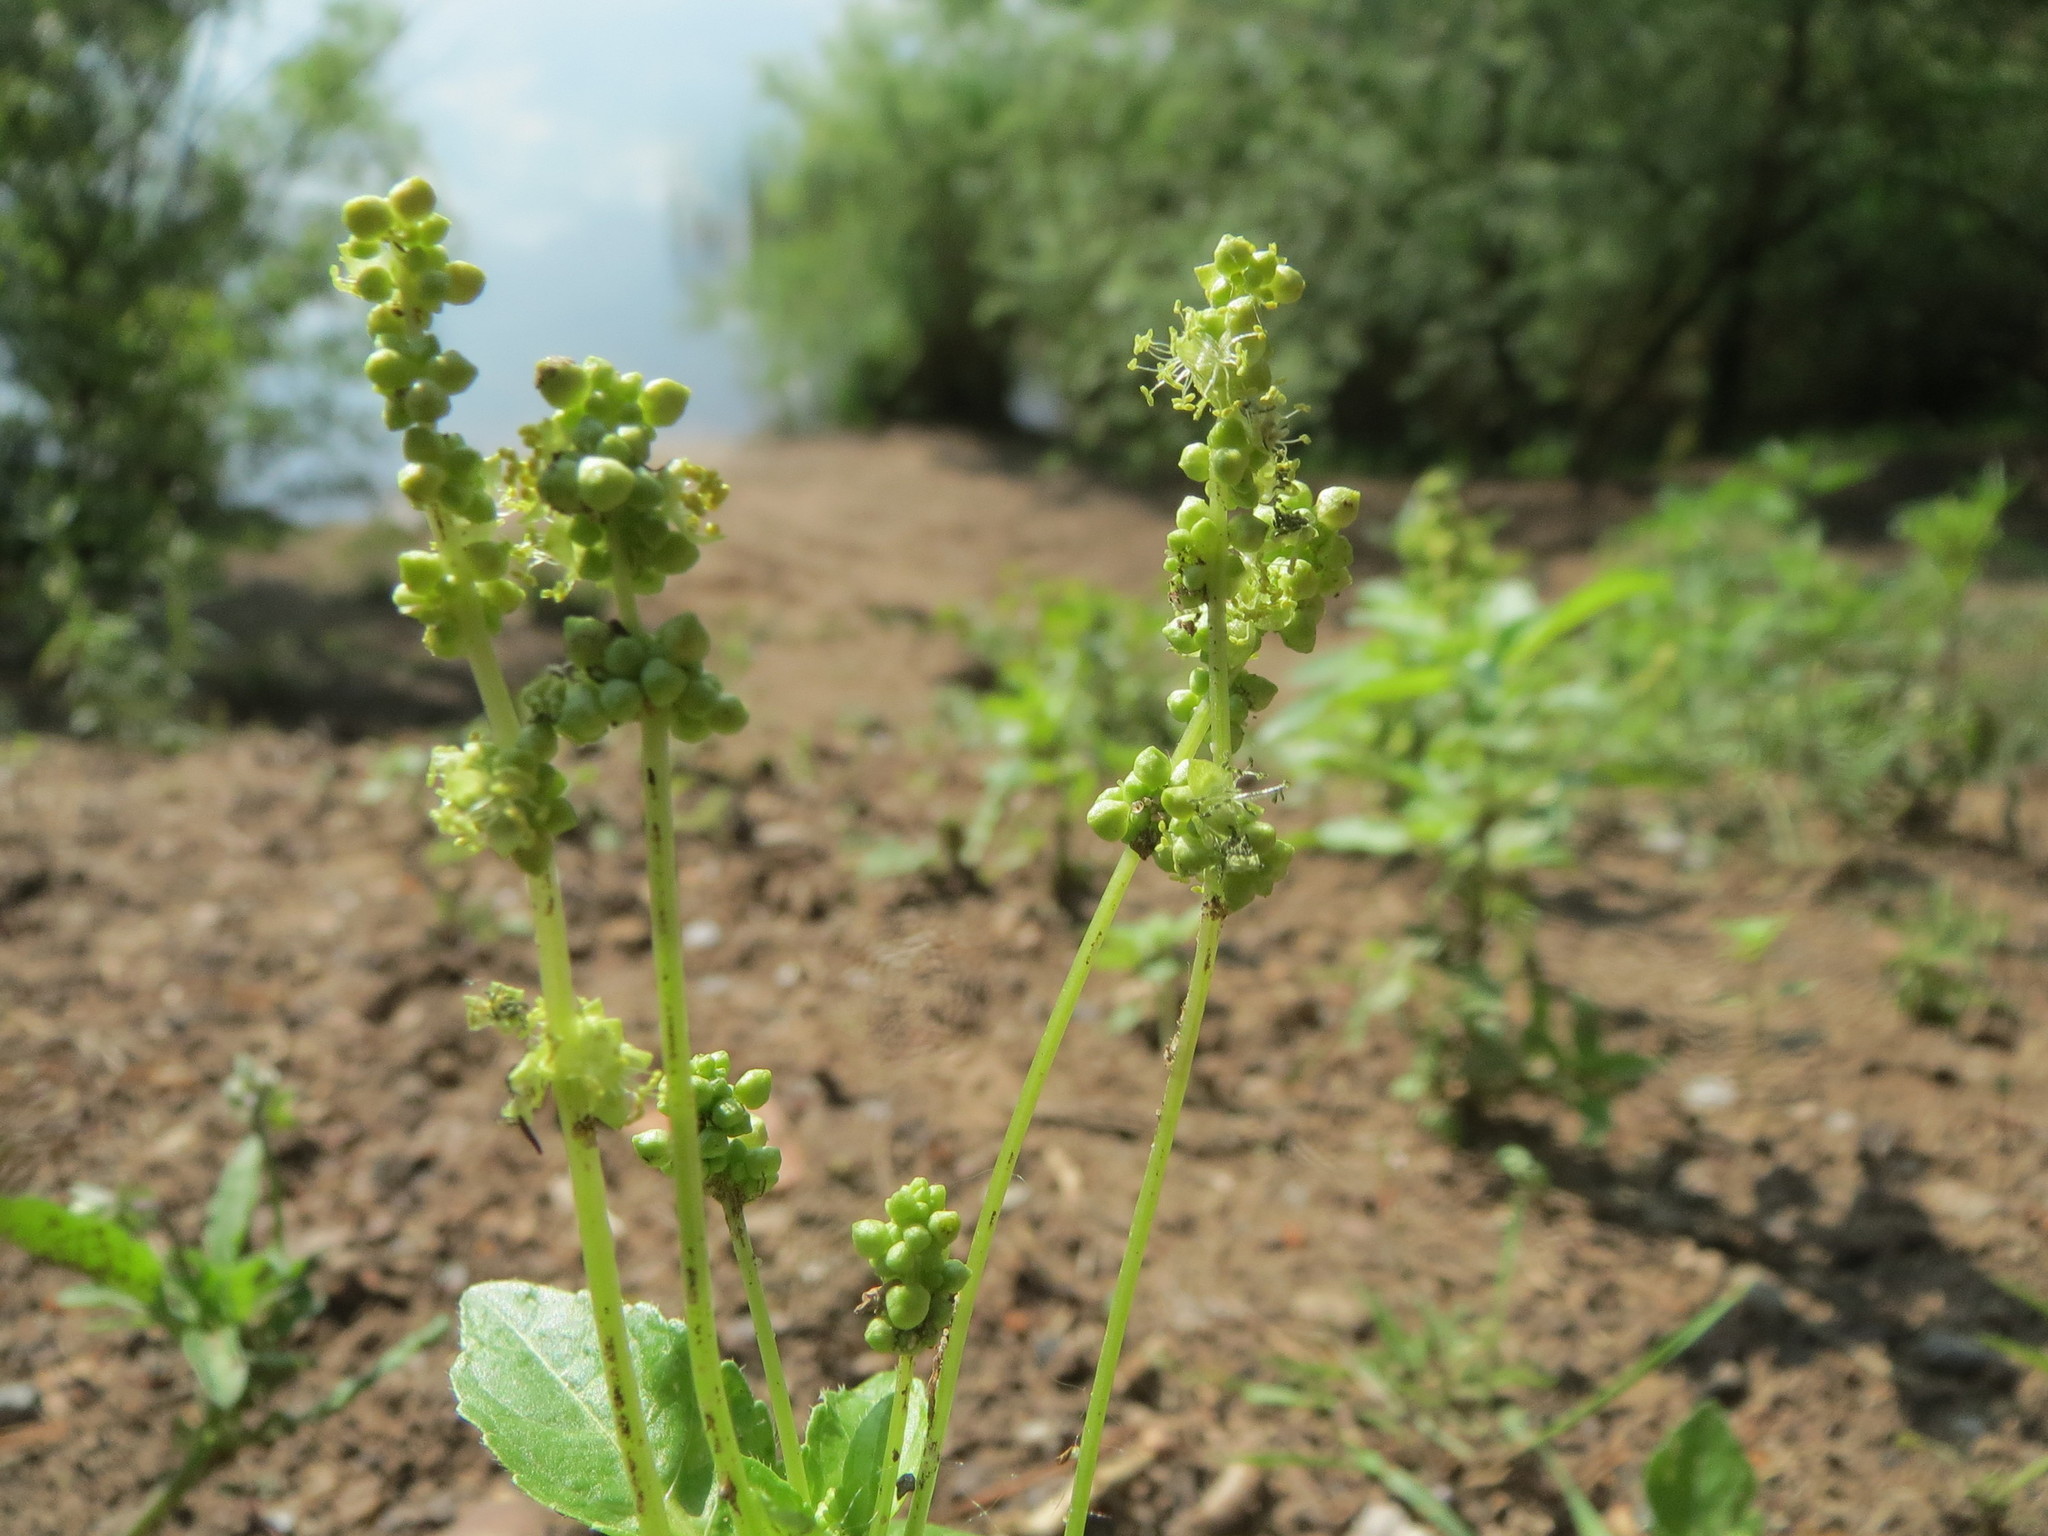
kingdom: Plantae
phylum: Tracheophyta
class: Magnoliopsida
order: Malpighiales
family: Euphorbiaceae
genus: Mercurialis
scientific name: Mercurialis annua
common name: Annual mercury
